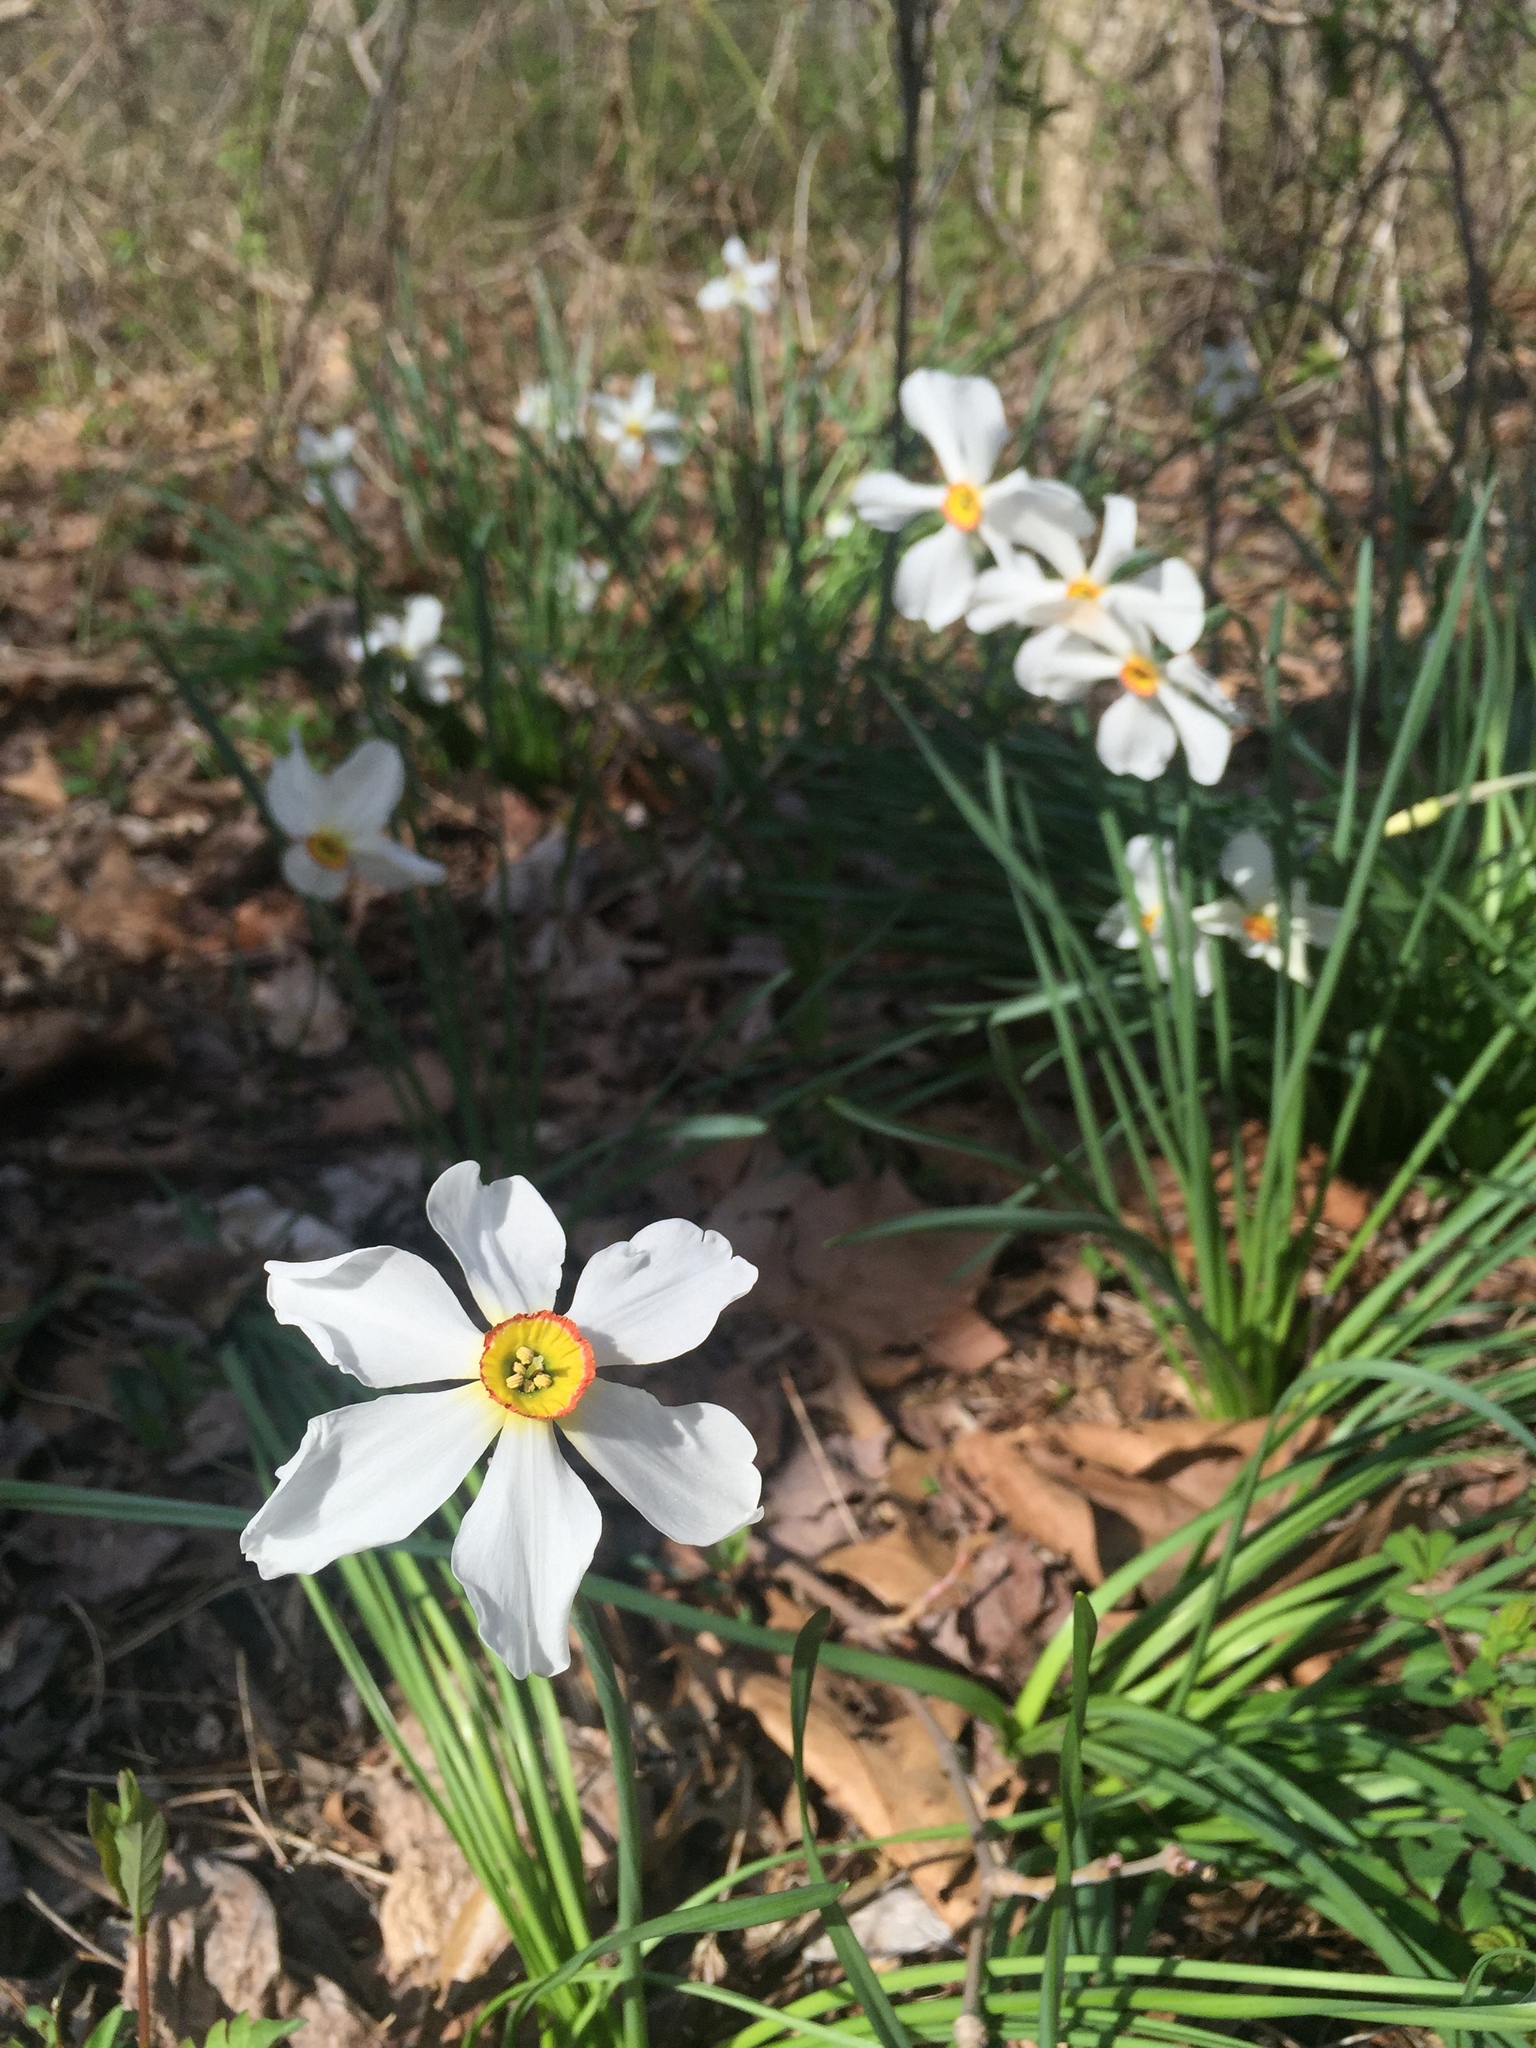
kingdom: Plantae
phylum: Tracheophyta
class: Liliopsida
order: Asparagales
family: Amaryllidaceae
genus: Narcissus
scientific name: Narcissus poeticus
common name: Pheasant's-eye daffodil
